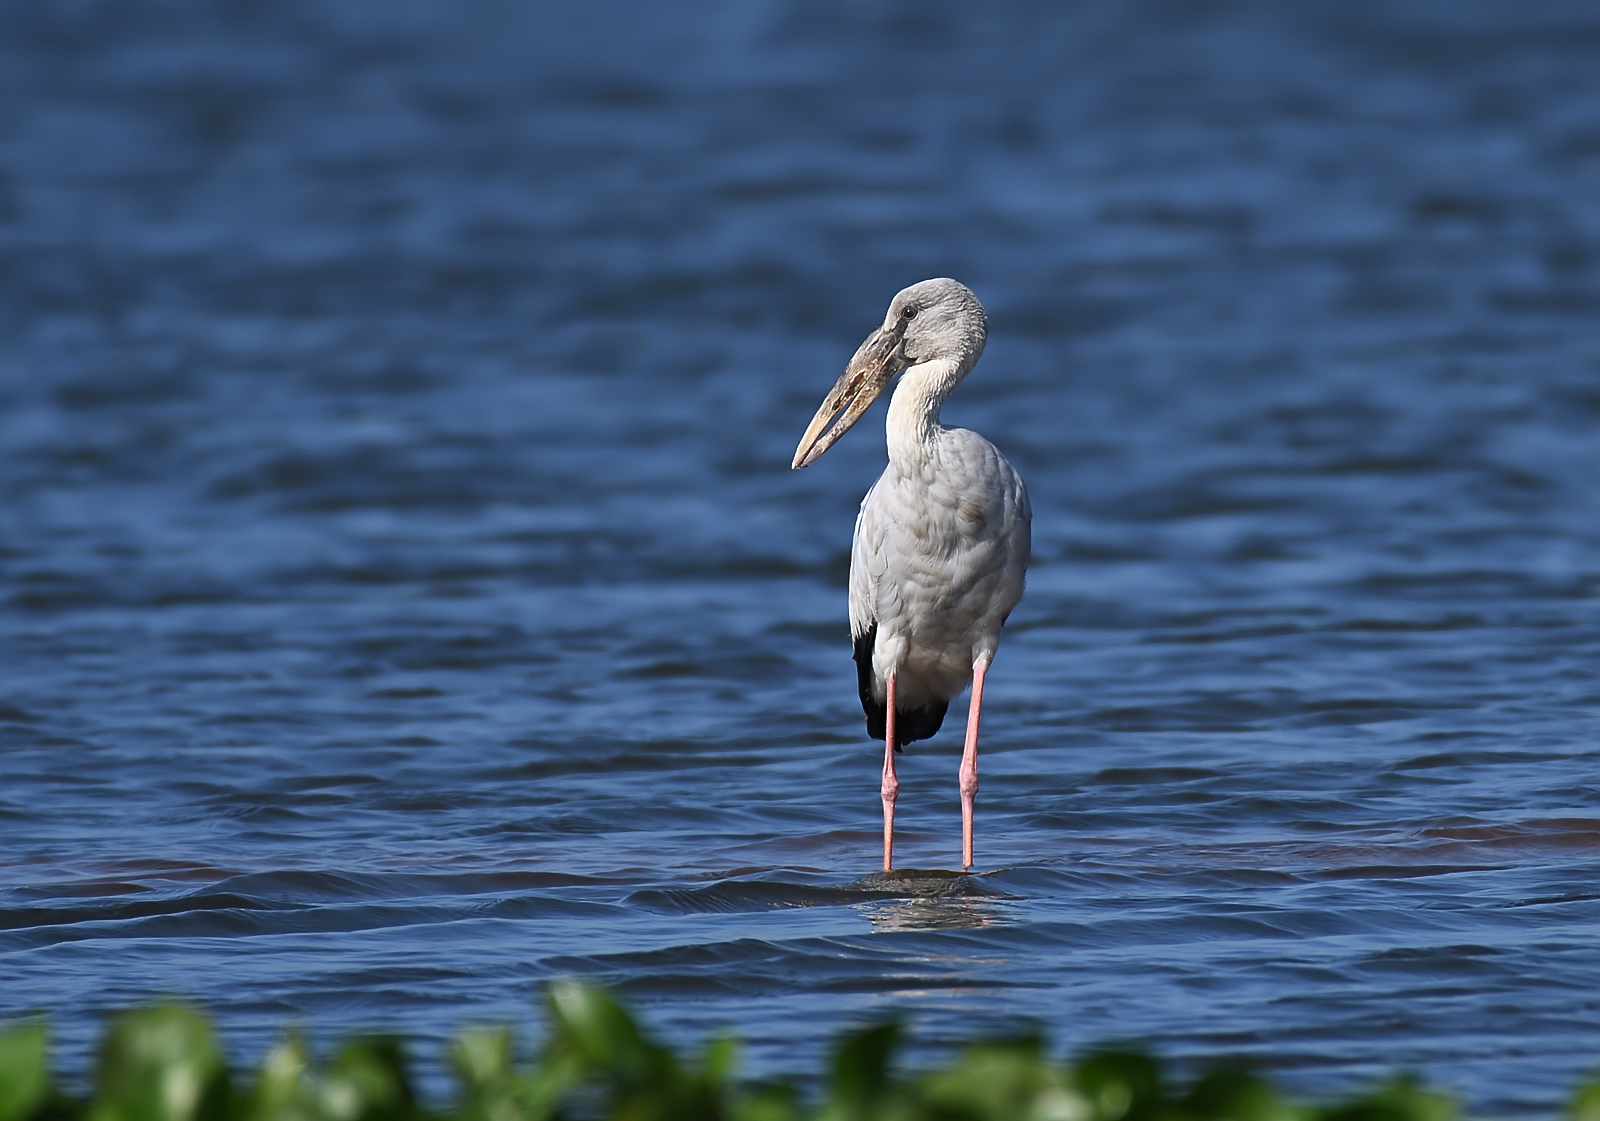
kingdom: Animalia
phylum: Chordata
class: Aves
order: Ciconiiformes
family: Ciconiidae
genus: Anastomus
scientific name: Anastomus oscitans
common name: Asian openbill
